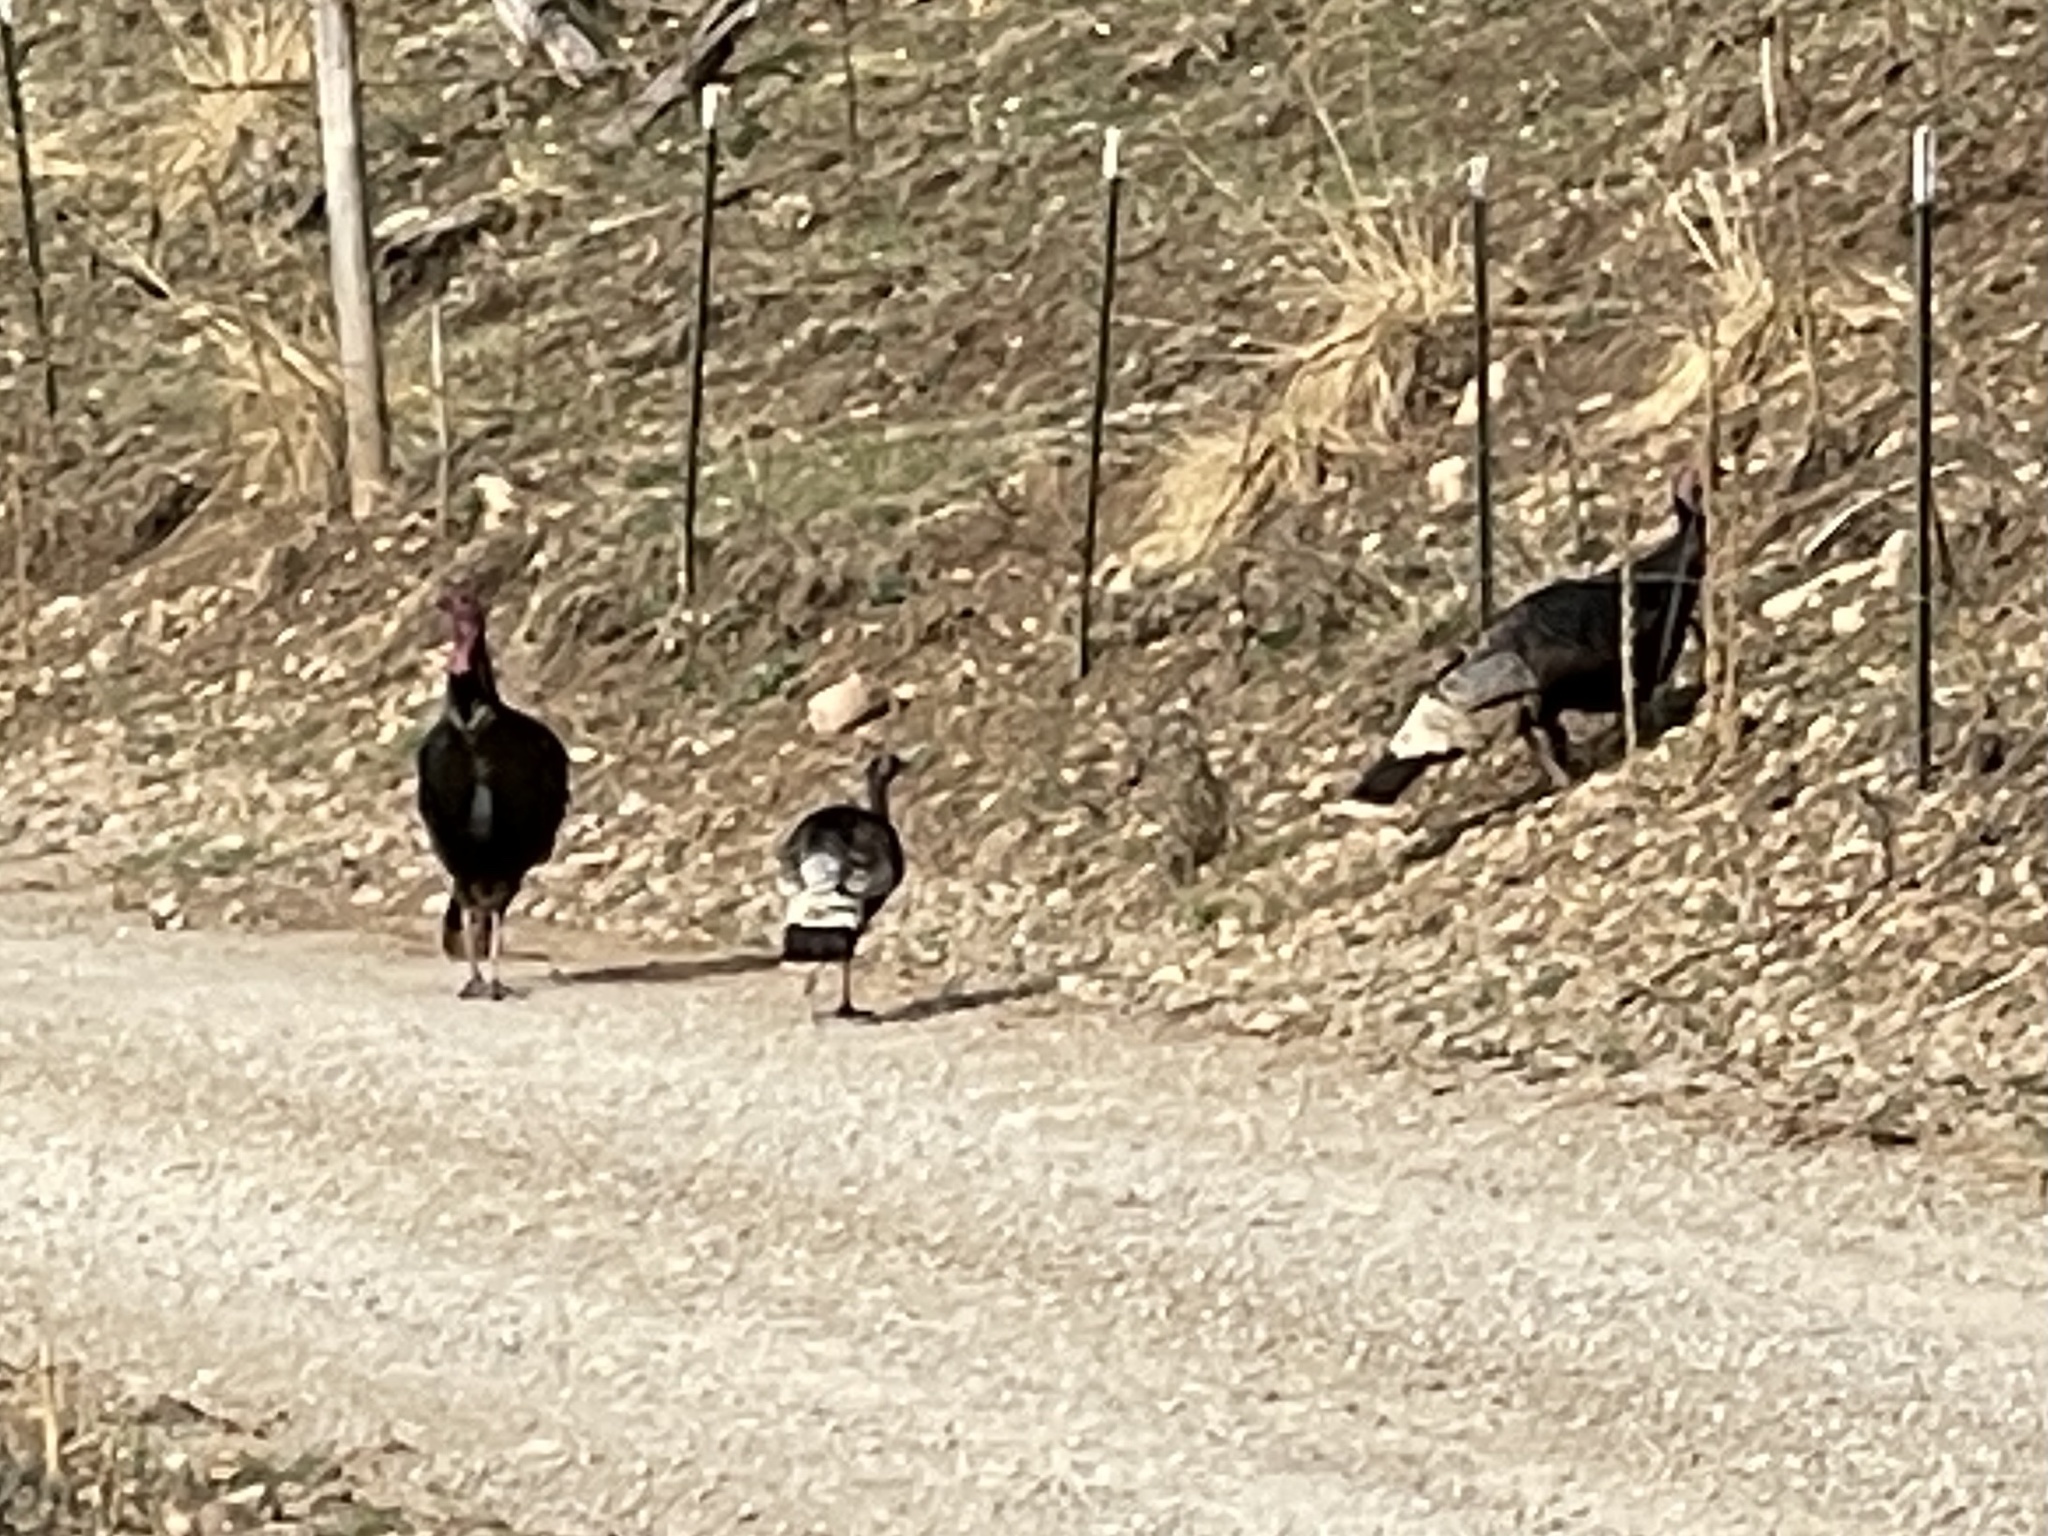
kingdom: Animalia
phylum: Chordata
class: Aves
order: Galliformes
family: Phasianidae
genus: Meleagris
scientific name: Meleagris gallopavo
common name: Wild turkey
